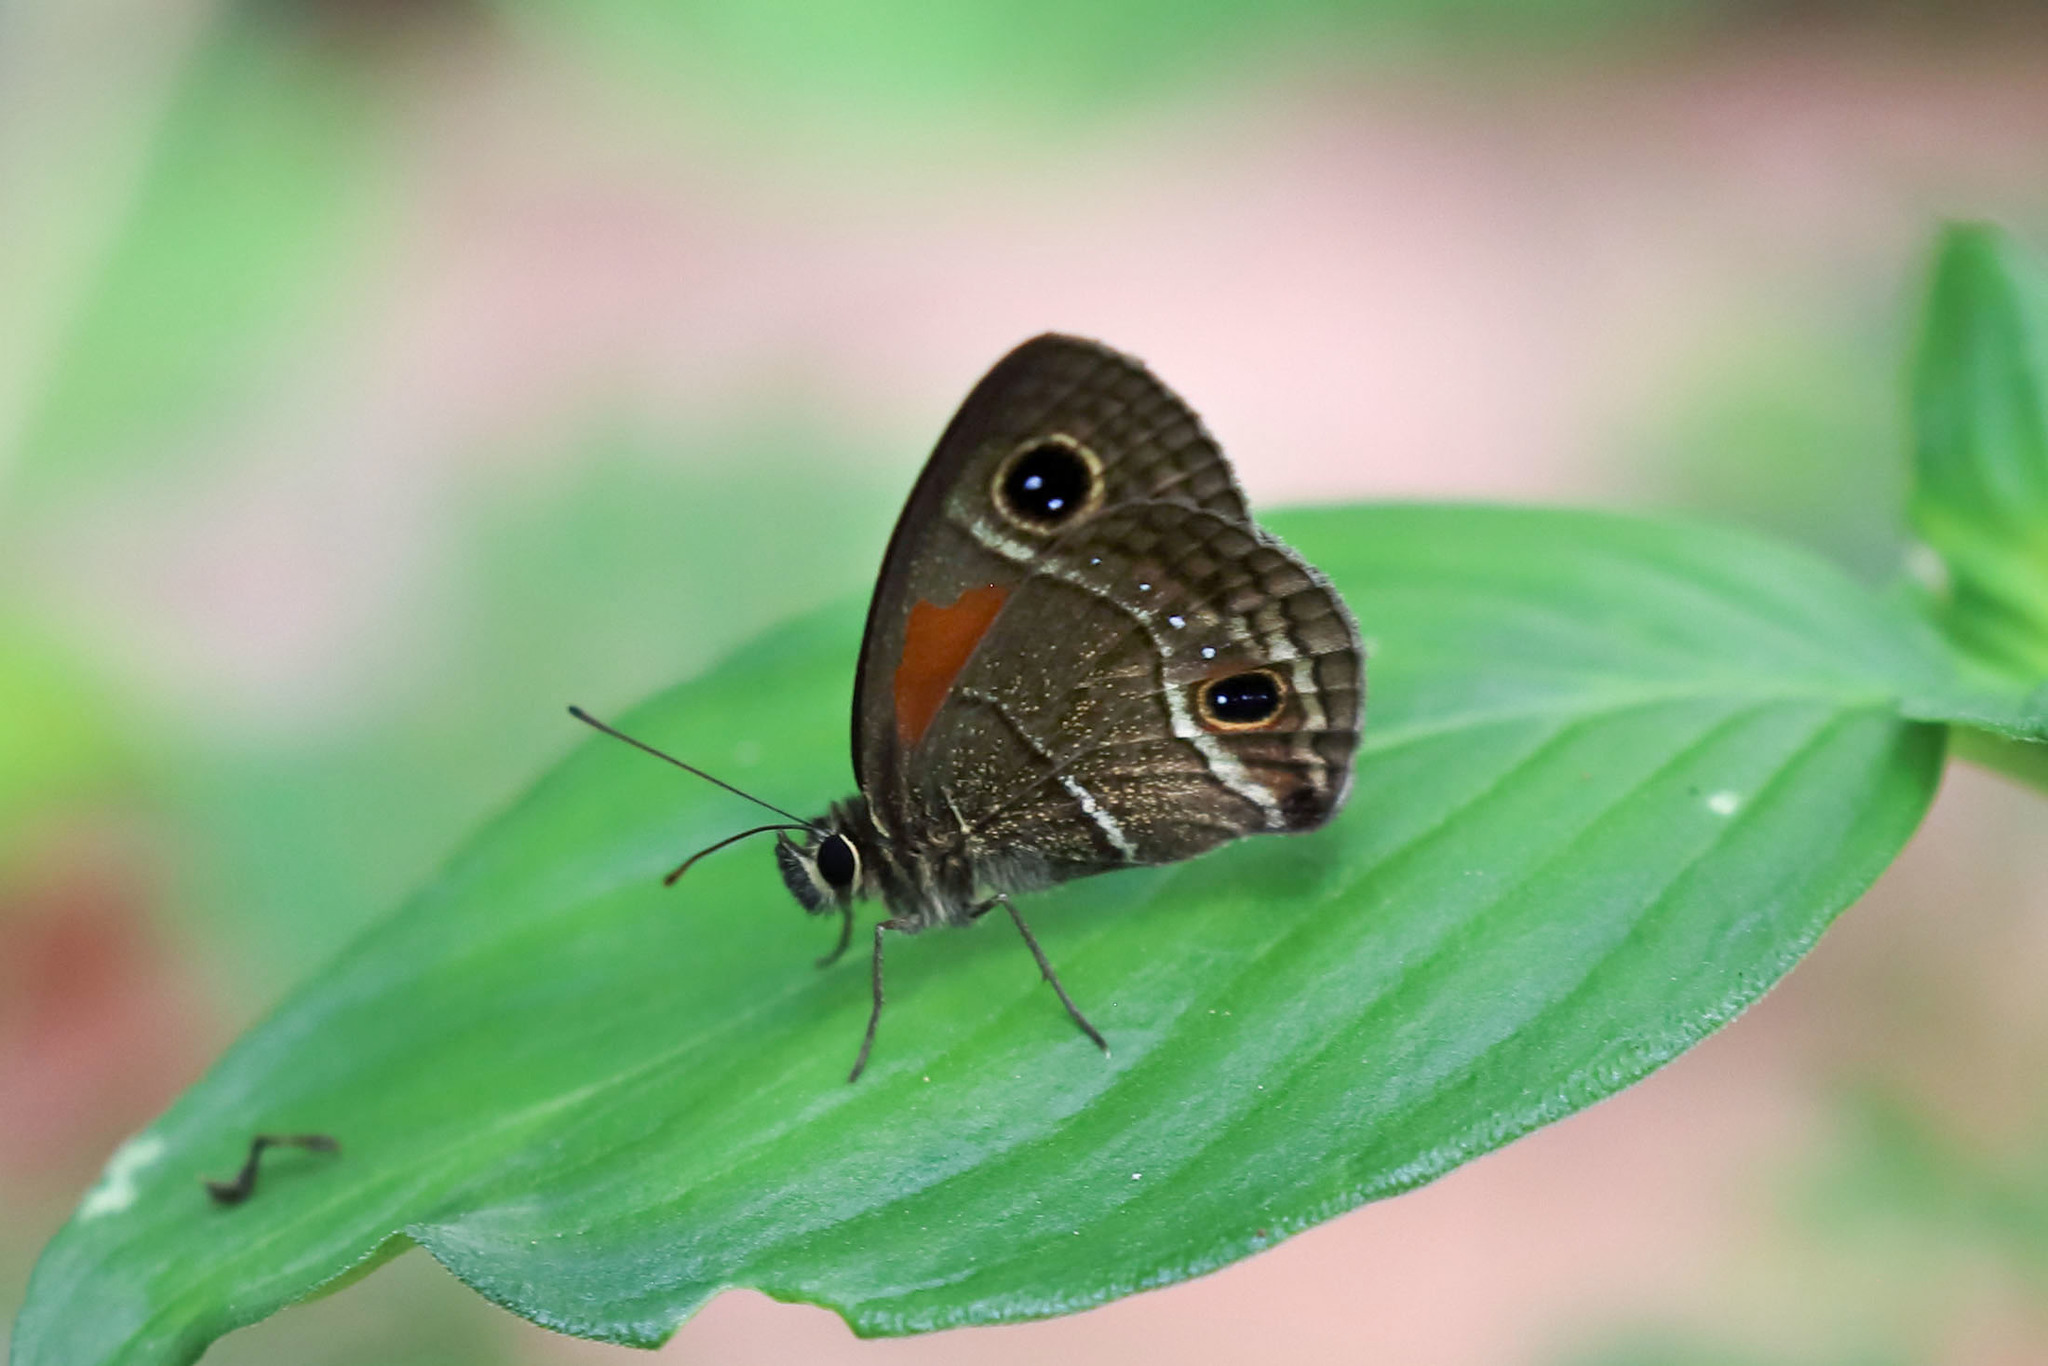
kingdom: Animalia
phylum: Arthropoda
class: Insecta
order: Lepidoptera
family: Nymphalidae
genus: Calisto
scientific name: Calisto confusa
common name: Confused calisto
